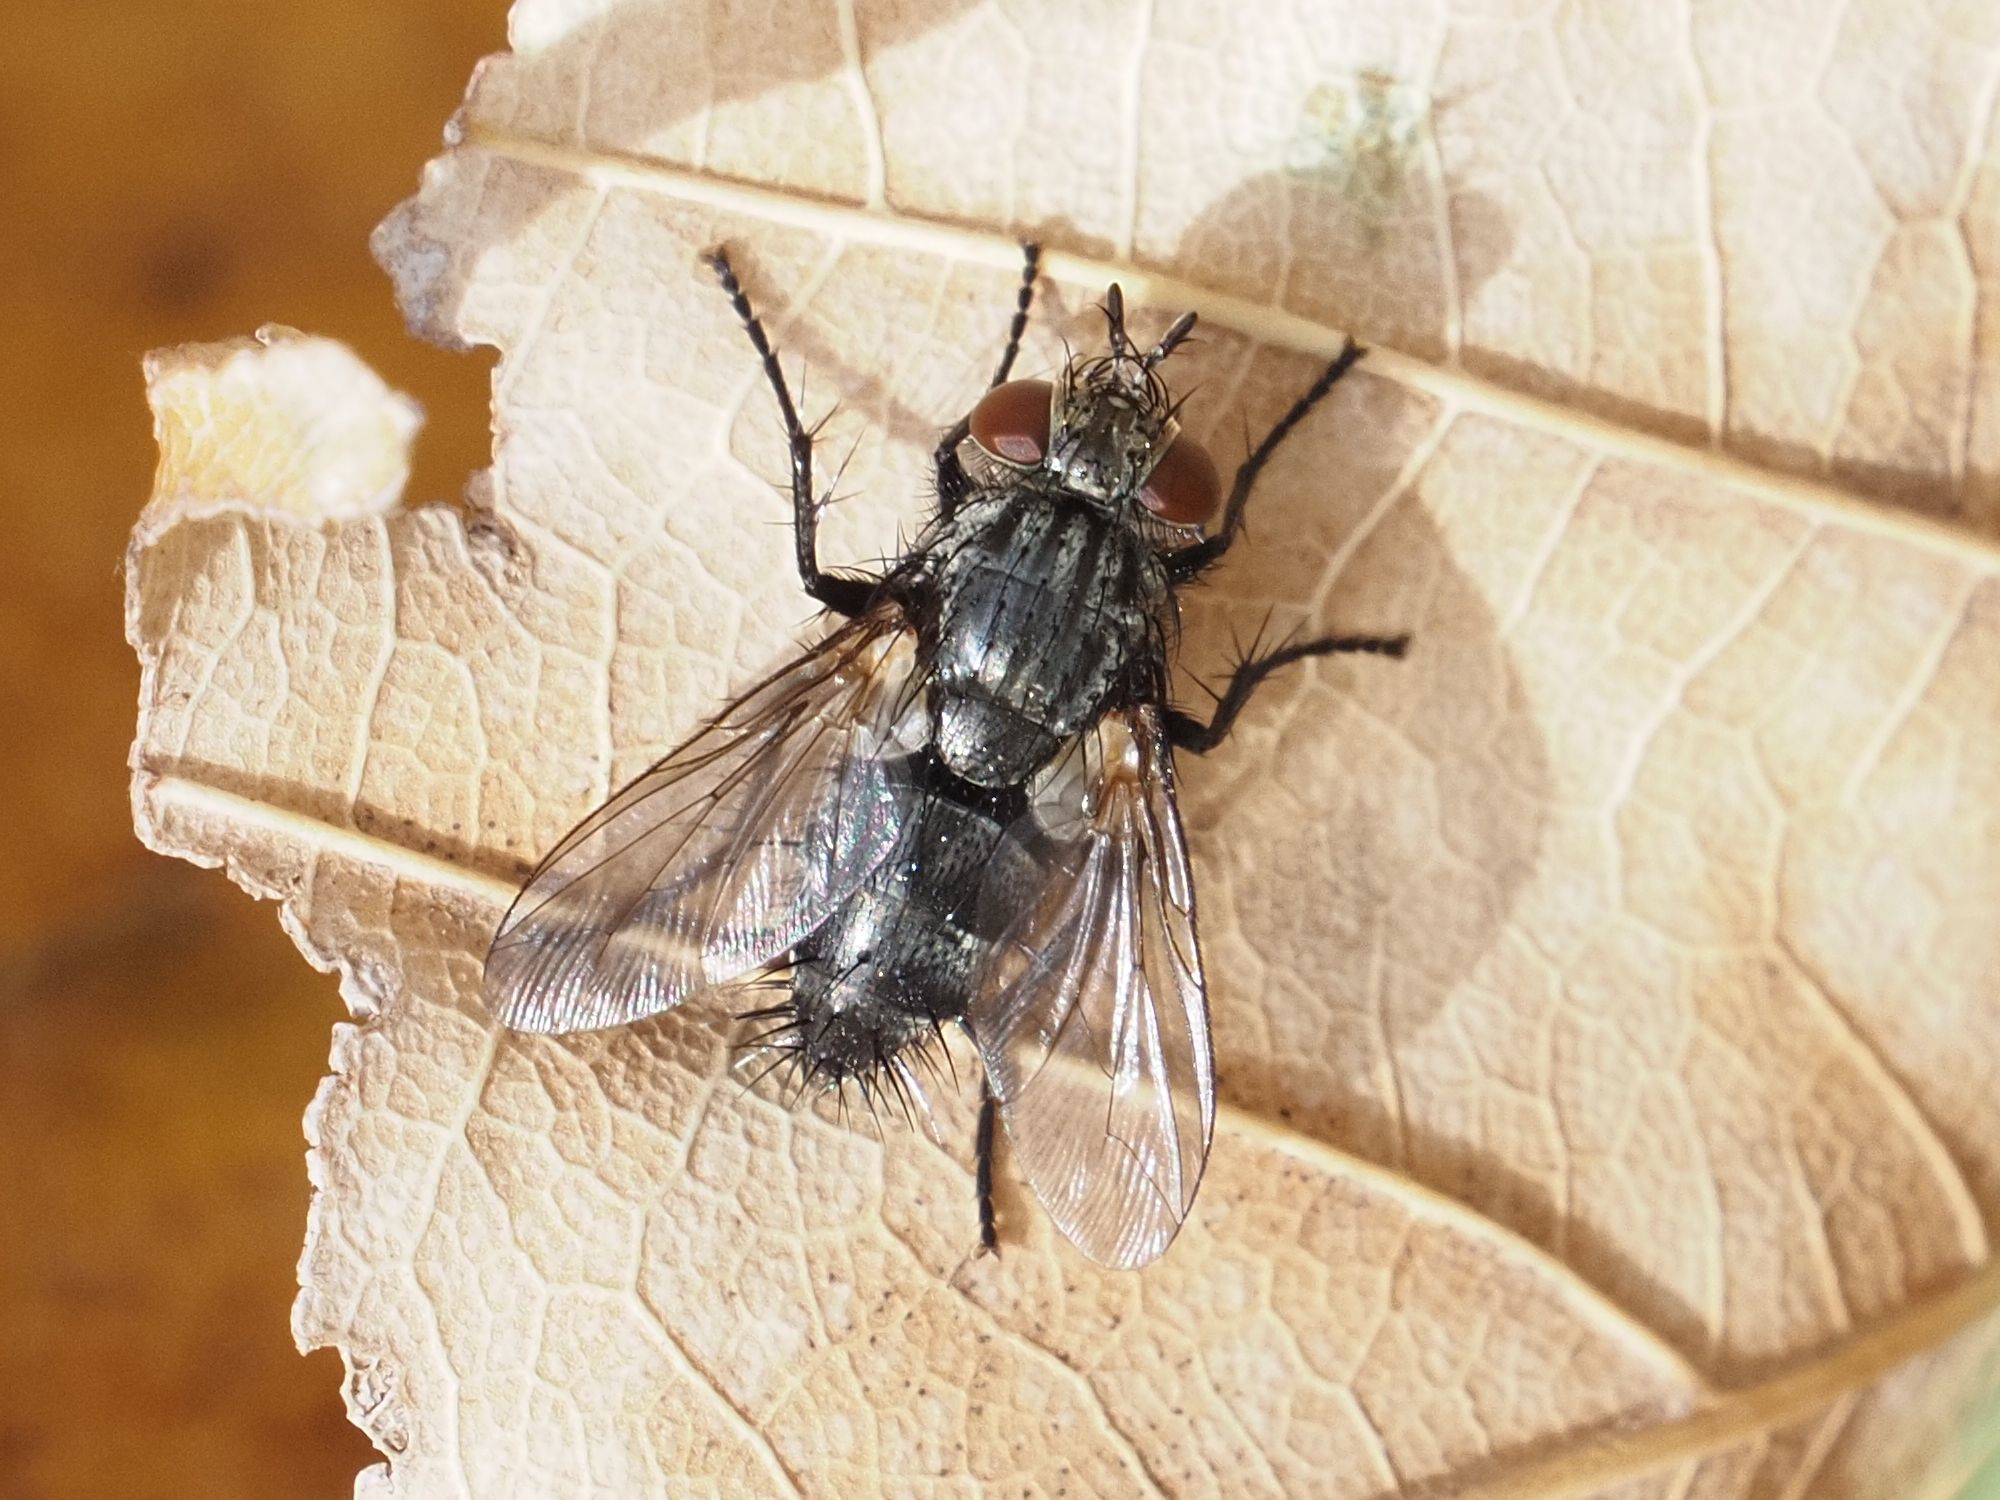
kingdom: Animalia
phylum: Arthropoda
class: Insecta
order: Diptera
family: Tachinidae
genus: Voria
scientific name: Voria ruralis
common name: Parasitic fly
